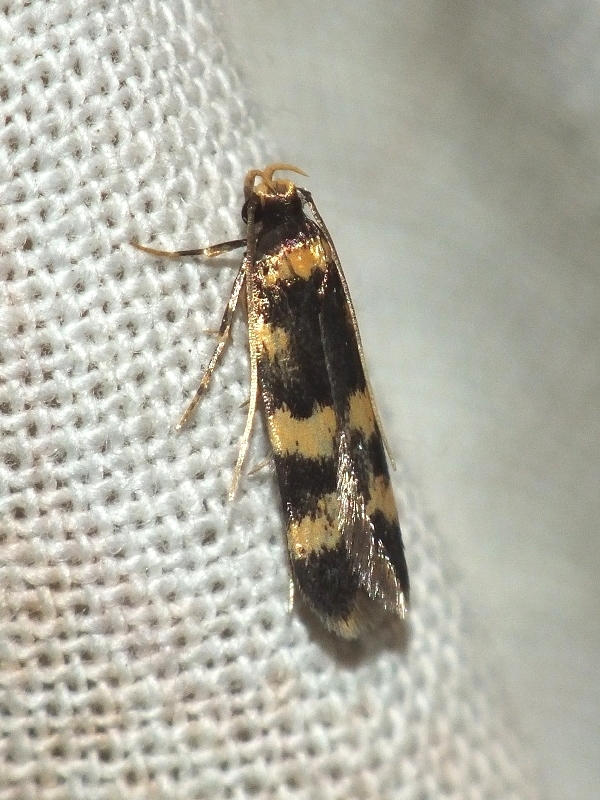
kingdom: Animalia
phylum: Arthropoda
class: Insecta
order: Lepidoptera
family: Autostichidae
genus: Oegoconia
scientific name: Oegoconia caradjai
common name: Straw obscure
